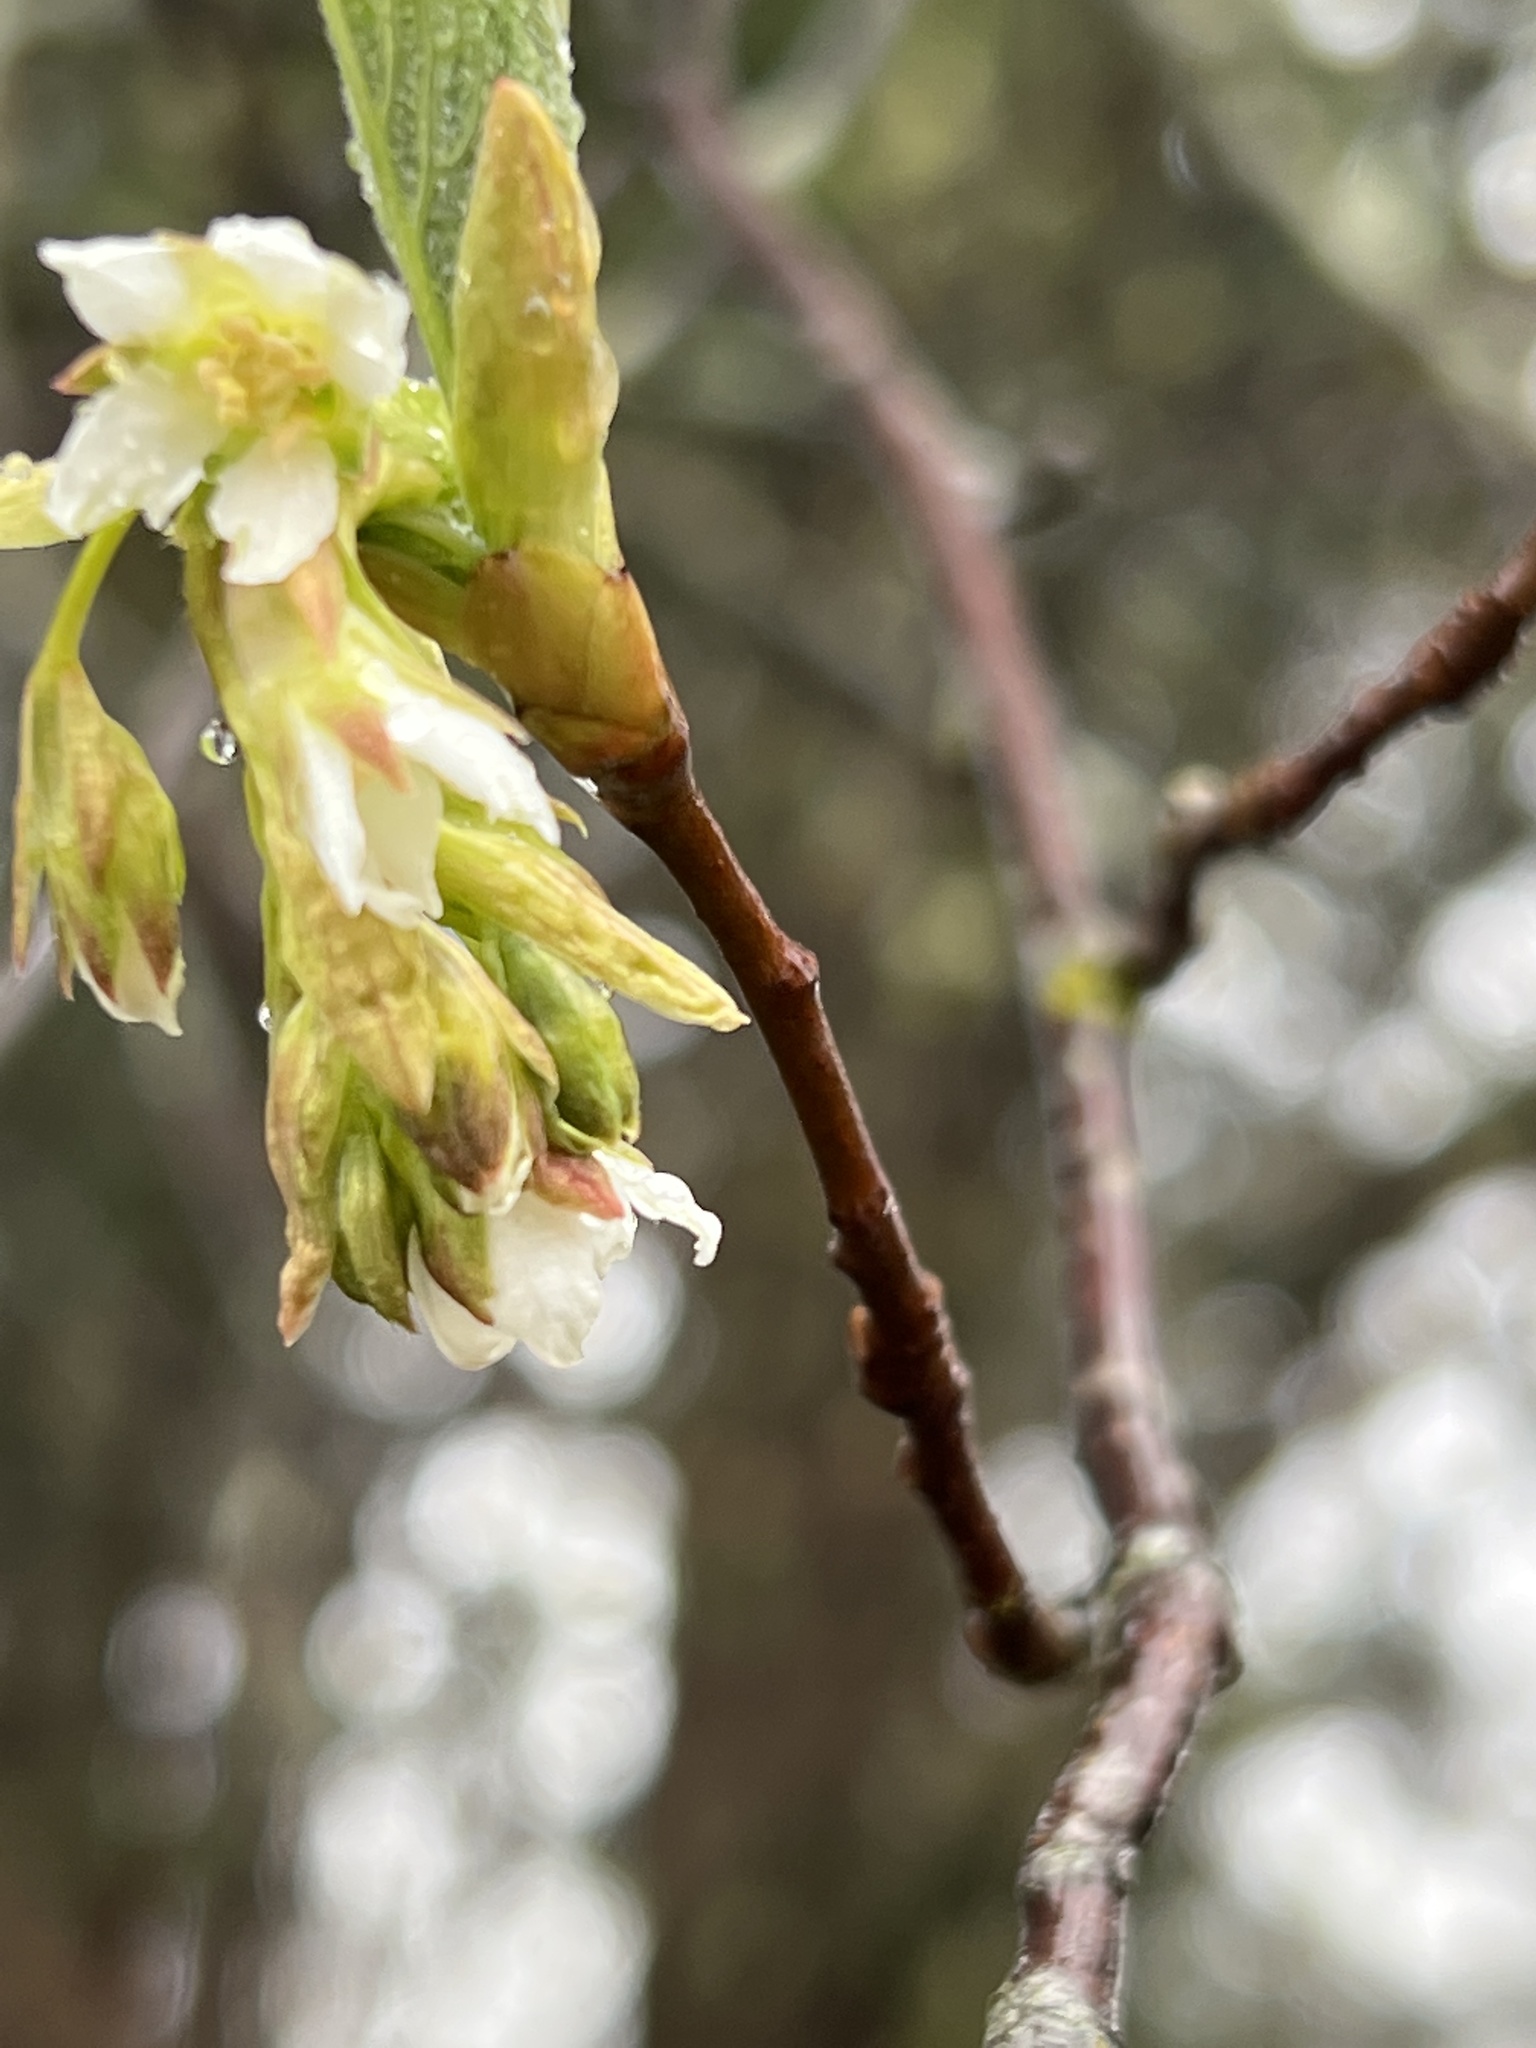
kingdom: Plantae
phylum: Tracheophyta
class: Magnoliopsida
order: Rosales
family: Rosaceae
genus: Oemleria
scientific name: Oemleria cerasiformis
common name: Osoberry
